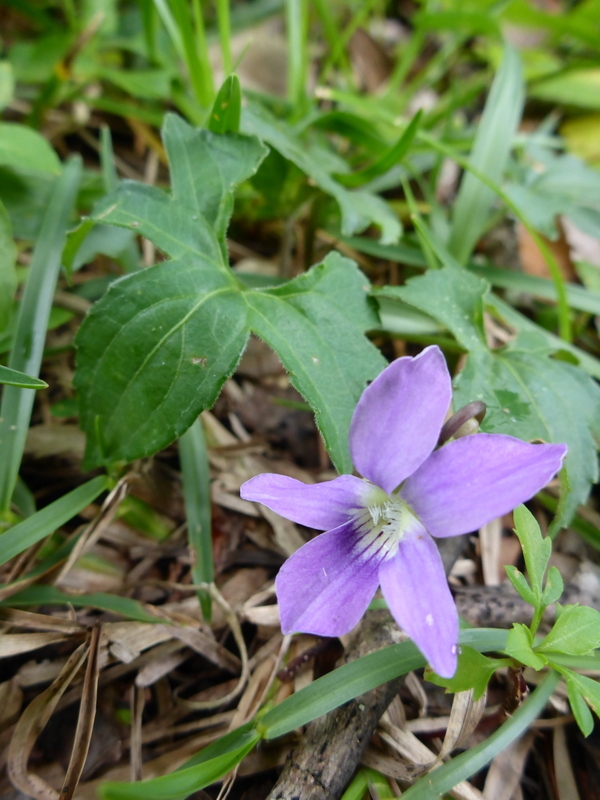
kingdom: Plantae
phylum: Tracheophyta
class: Magnoliopsida
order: Malpighiales
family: Violaceae
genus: Viola
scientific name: Viola palmata
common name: Early blue violet
